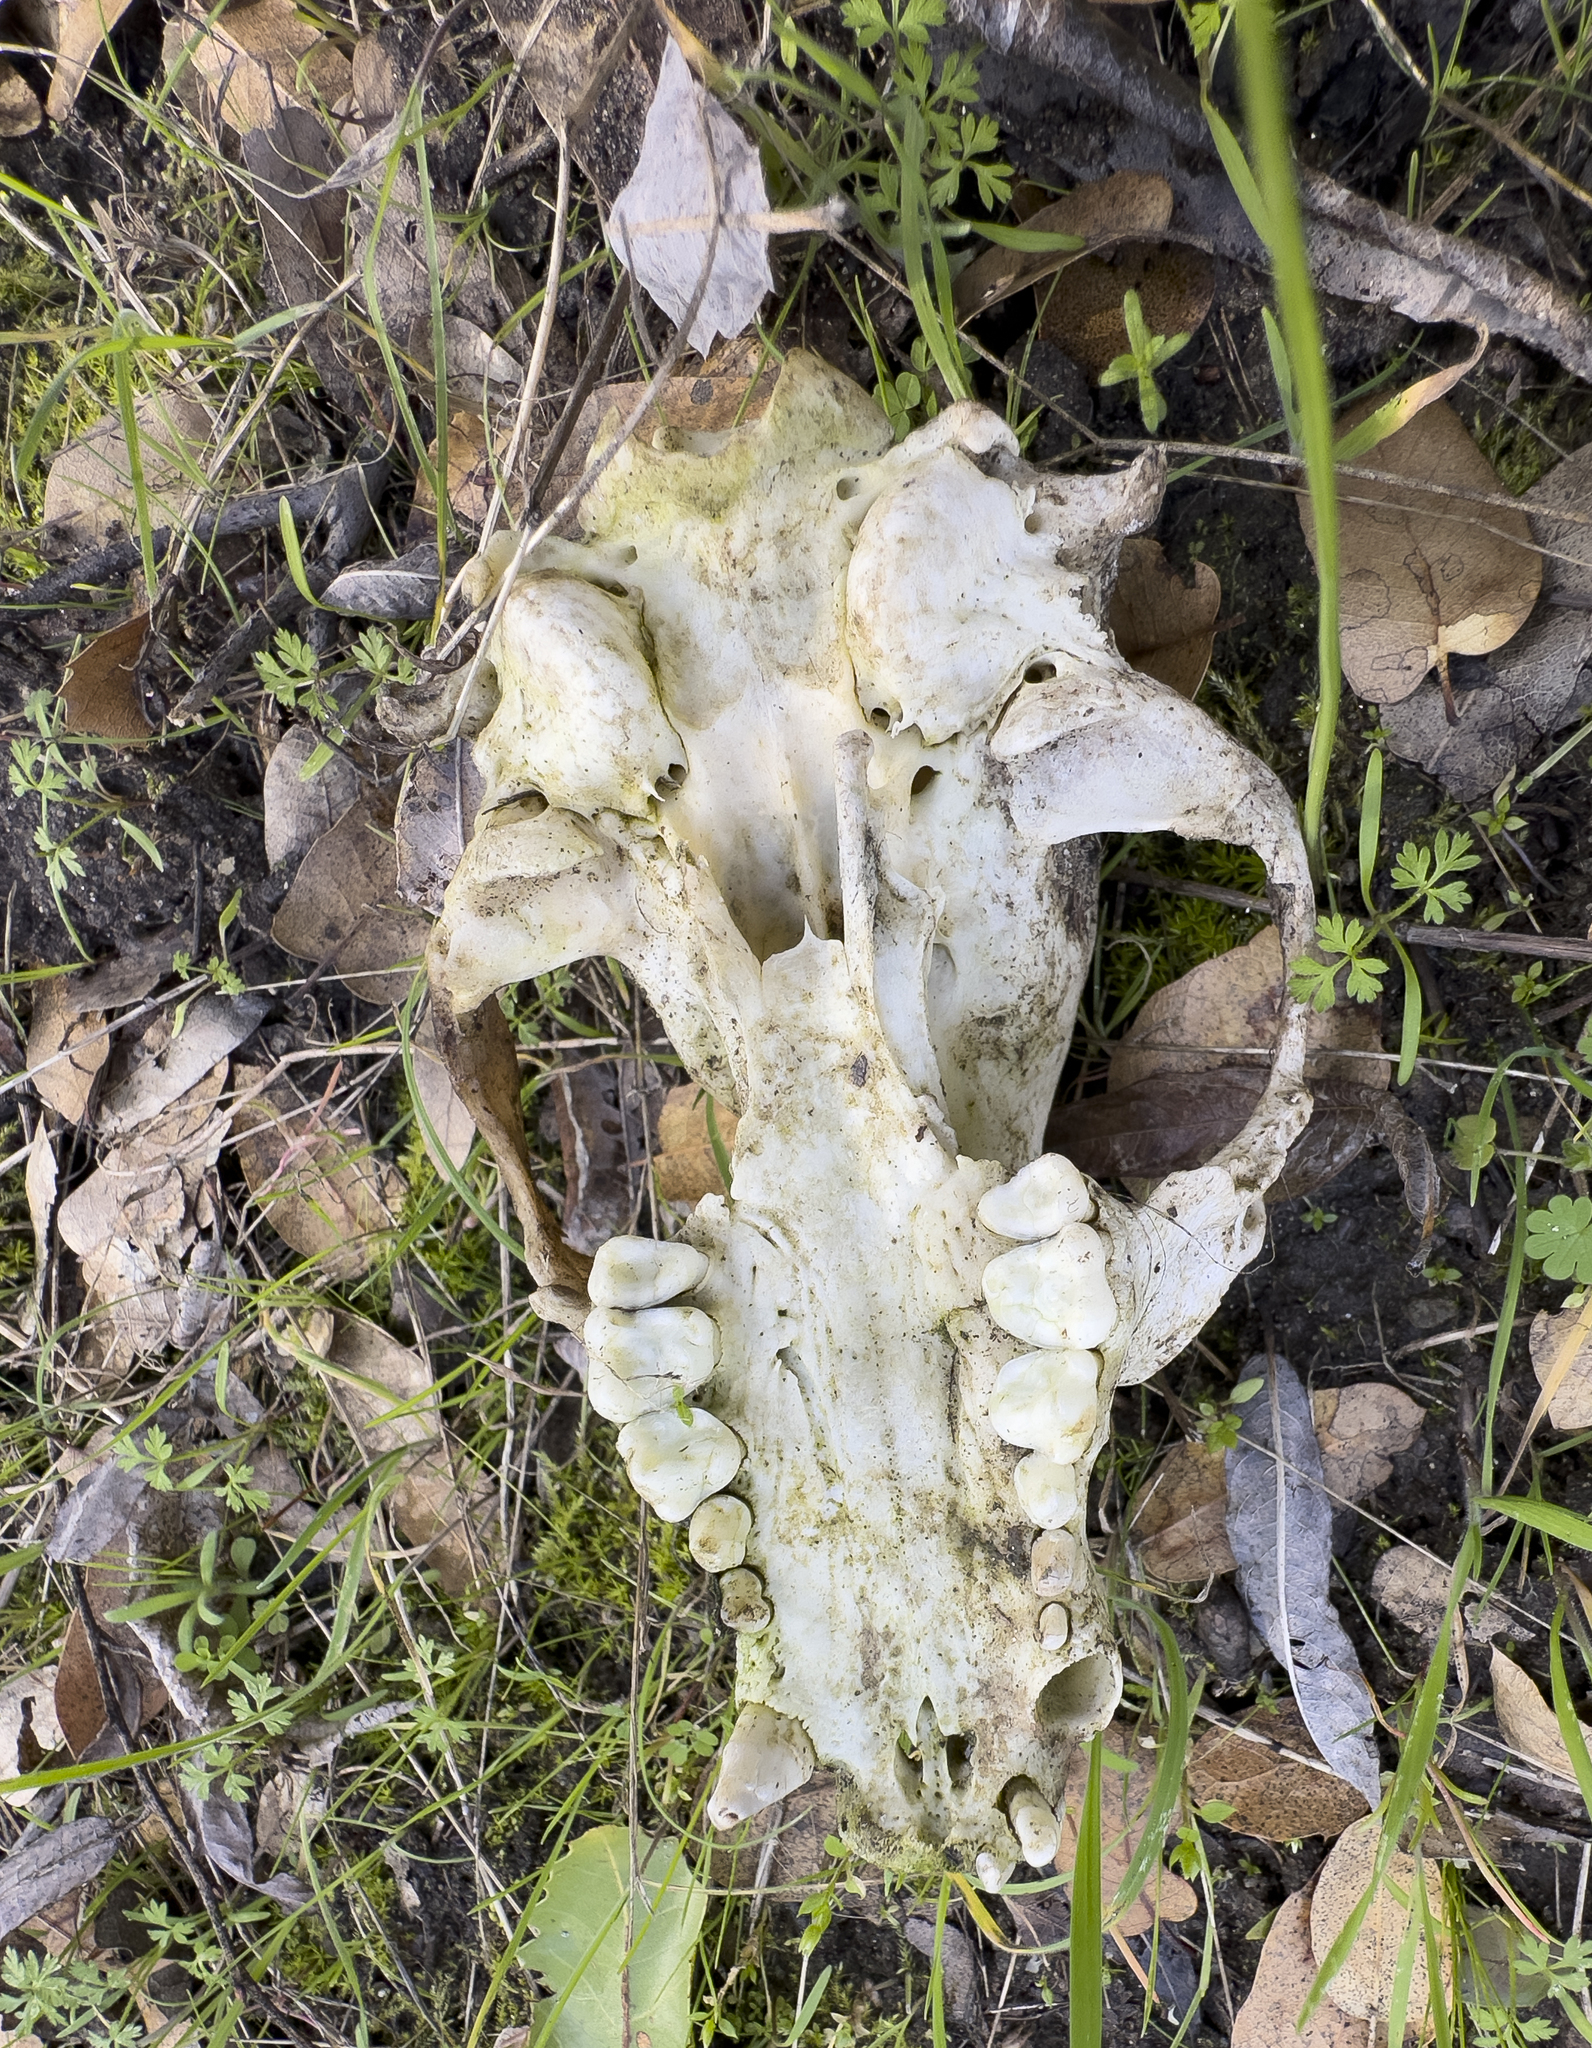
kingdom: Animalia
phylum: Chordata
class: Mammalia
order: Carnivora
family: Procyonidae
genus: Procyon
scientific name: Procyon lotor
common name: Raccoon
